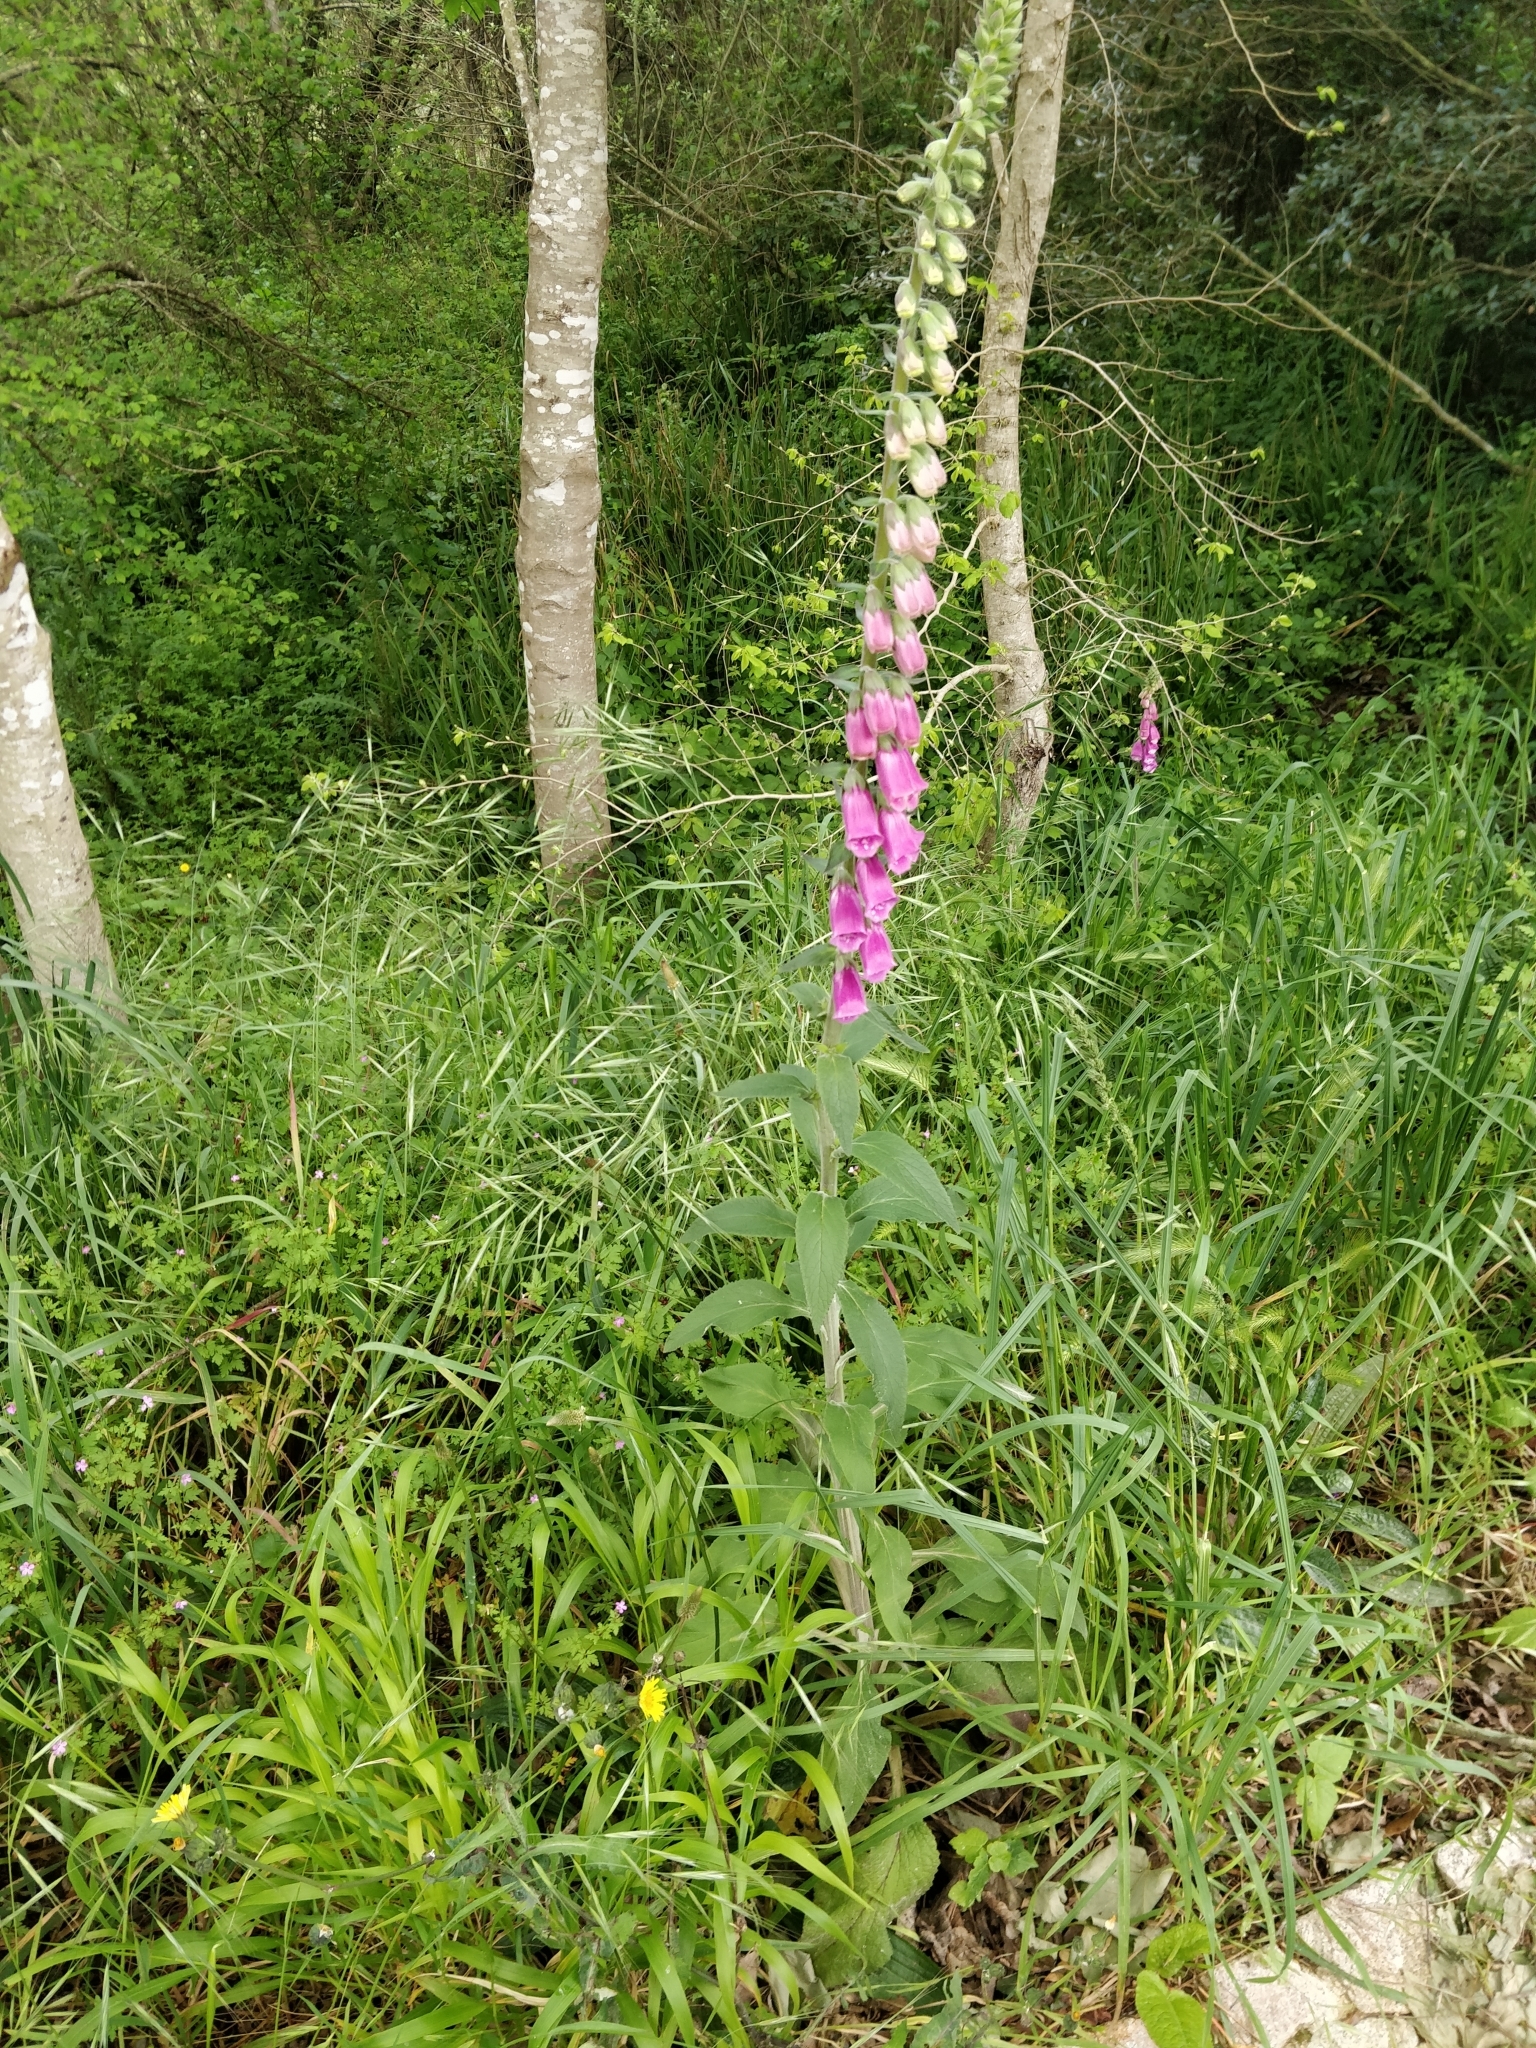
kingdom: Plantae
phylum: Tracheophyta
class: Magnoliopsida
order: Lamiales
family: Plantaginaceae
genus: Digitalis
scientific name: Digitalis purpurea
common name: Foxglove
